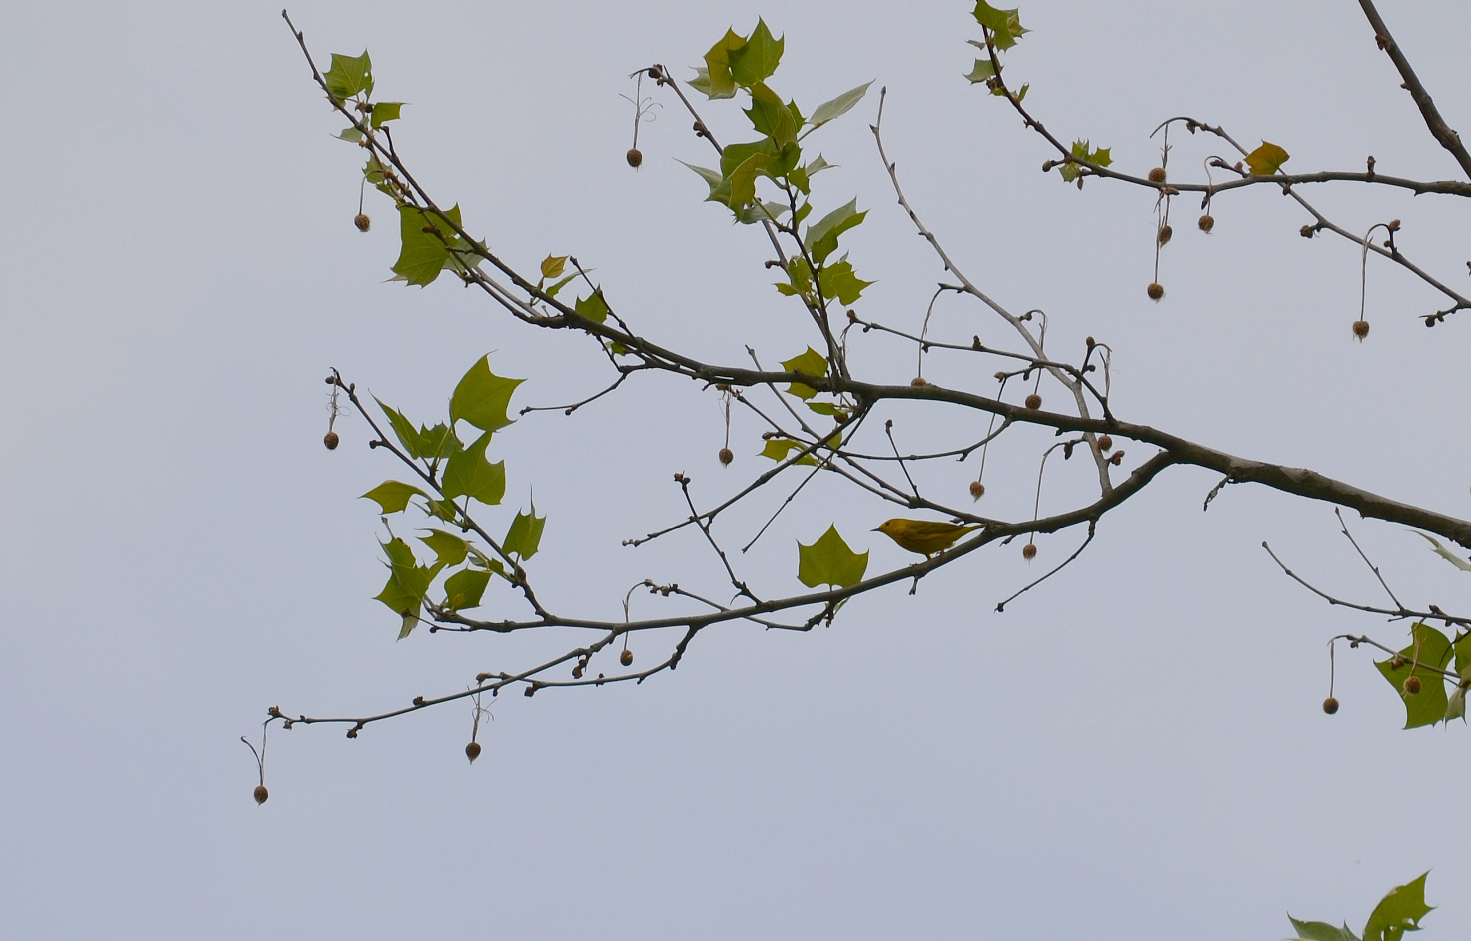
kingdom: Animalia
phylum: Chordata
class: Aves
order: Passeriformes
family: Parulidae
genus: Setophaga
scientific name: Setophaga petechia
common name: Yellow warbler
